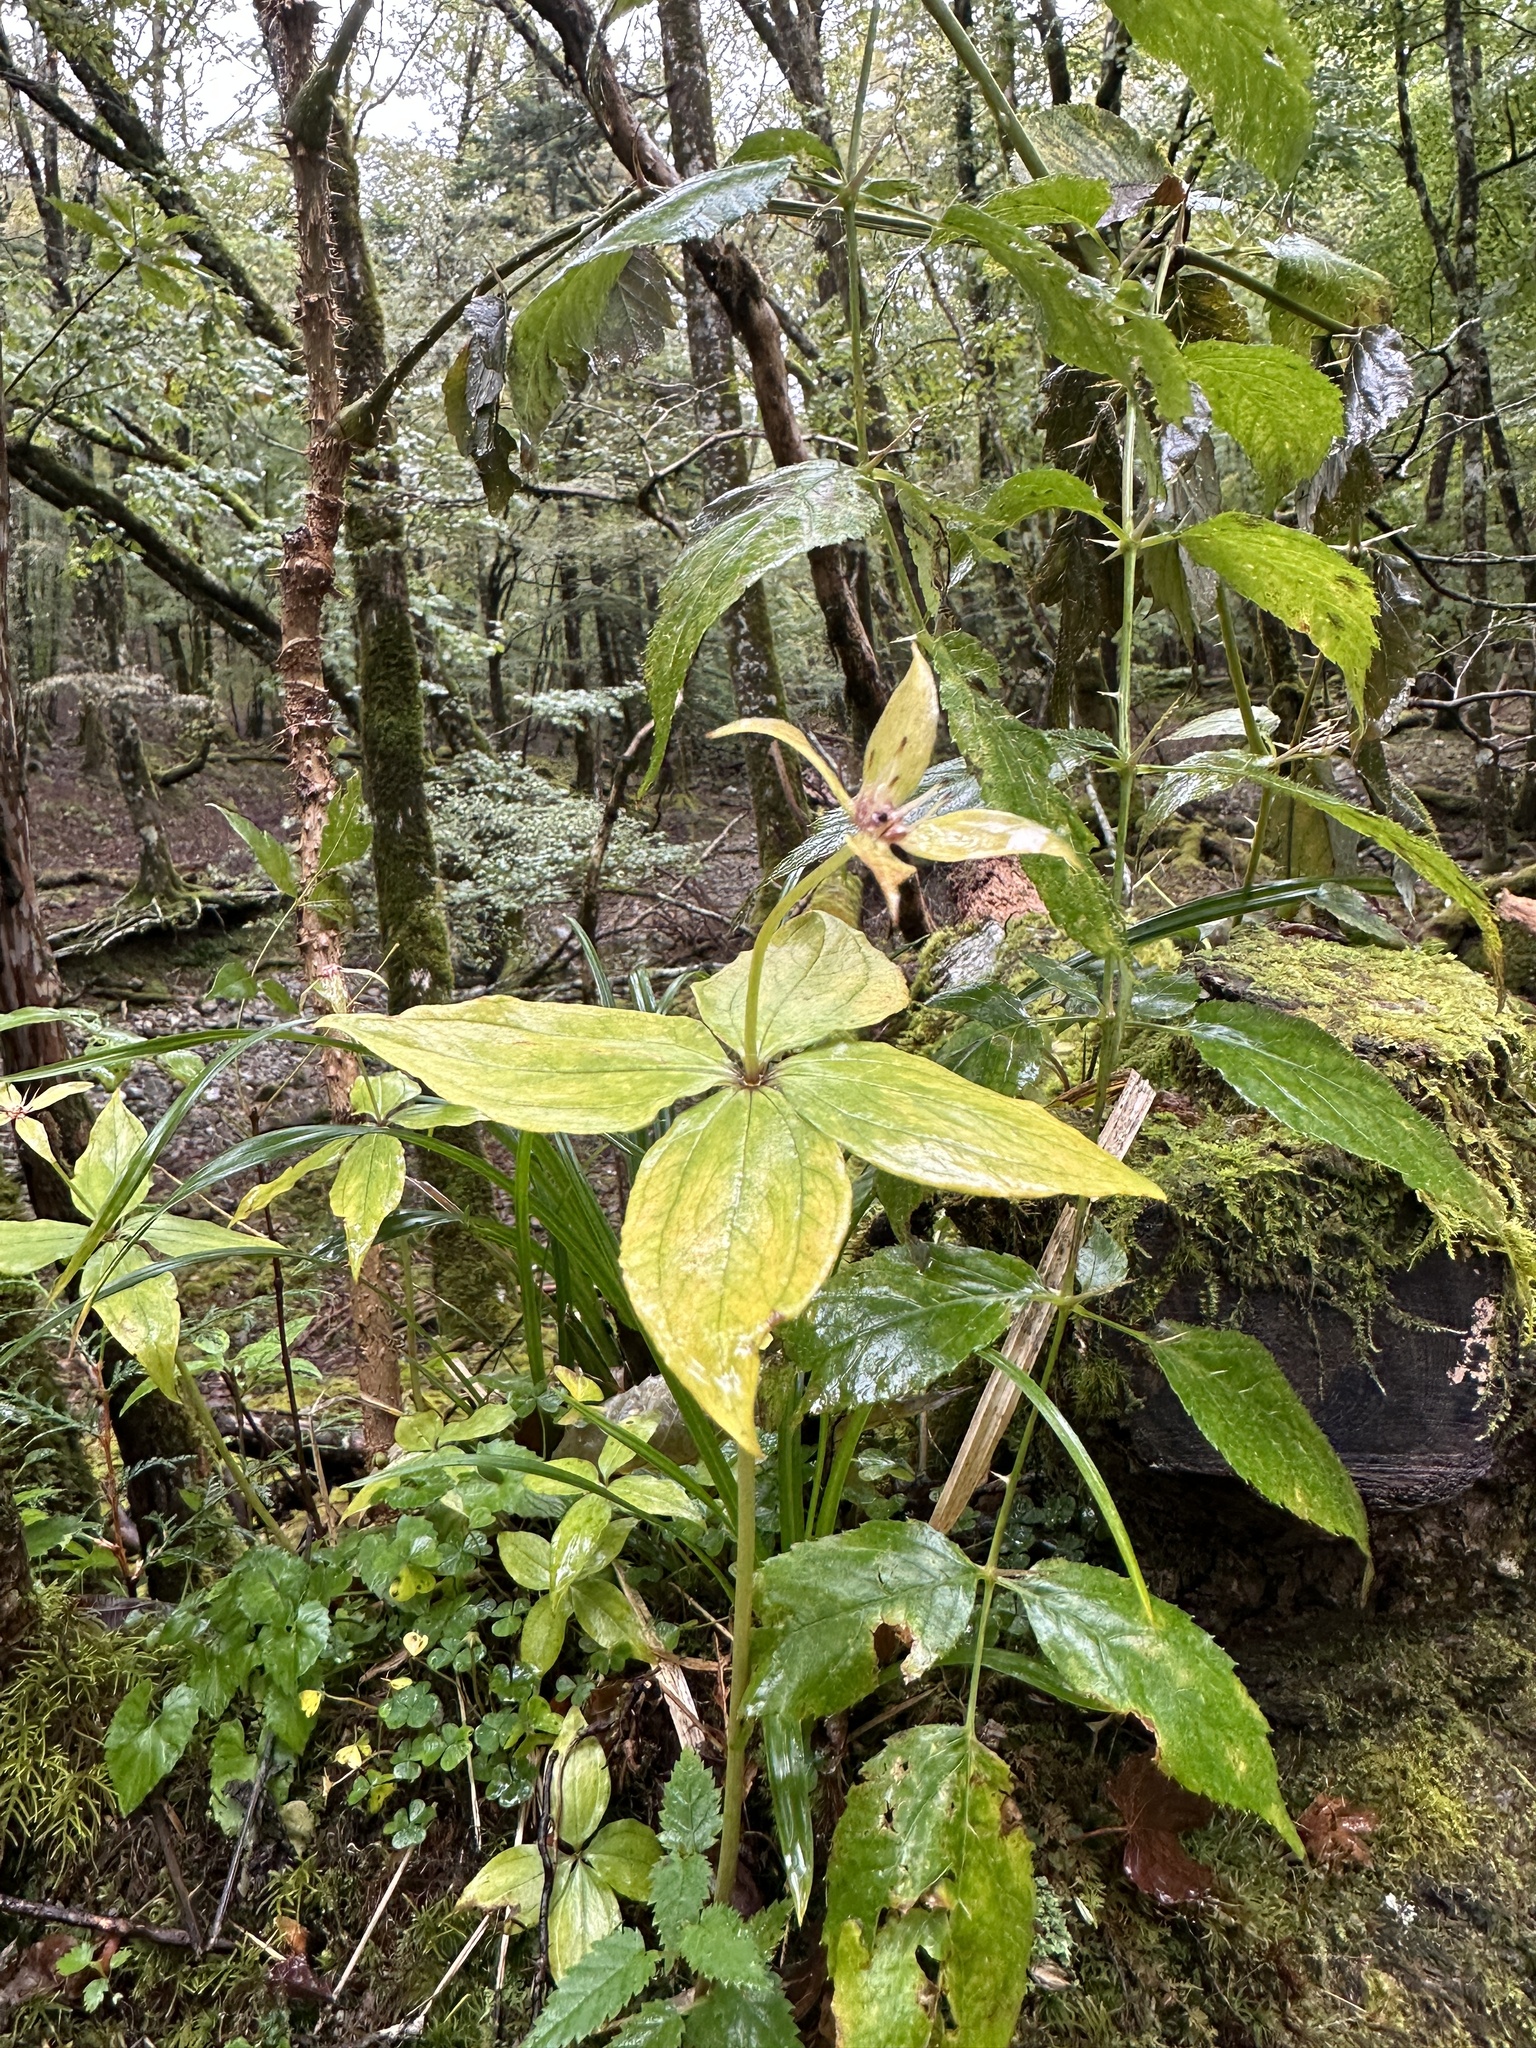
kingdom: Plantae
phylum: Tracheophyta
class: Liliopsida
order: Liliales
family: Melanthiaceae
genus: Paris
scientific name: Paris tetraphylla
